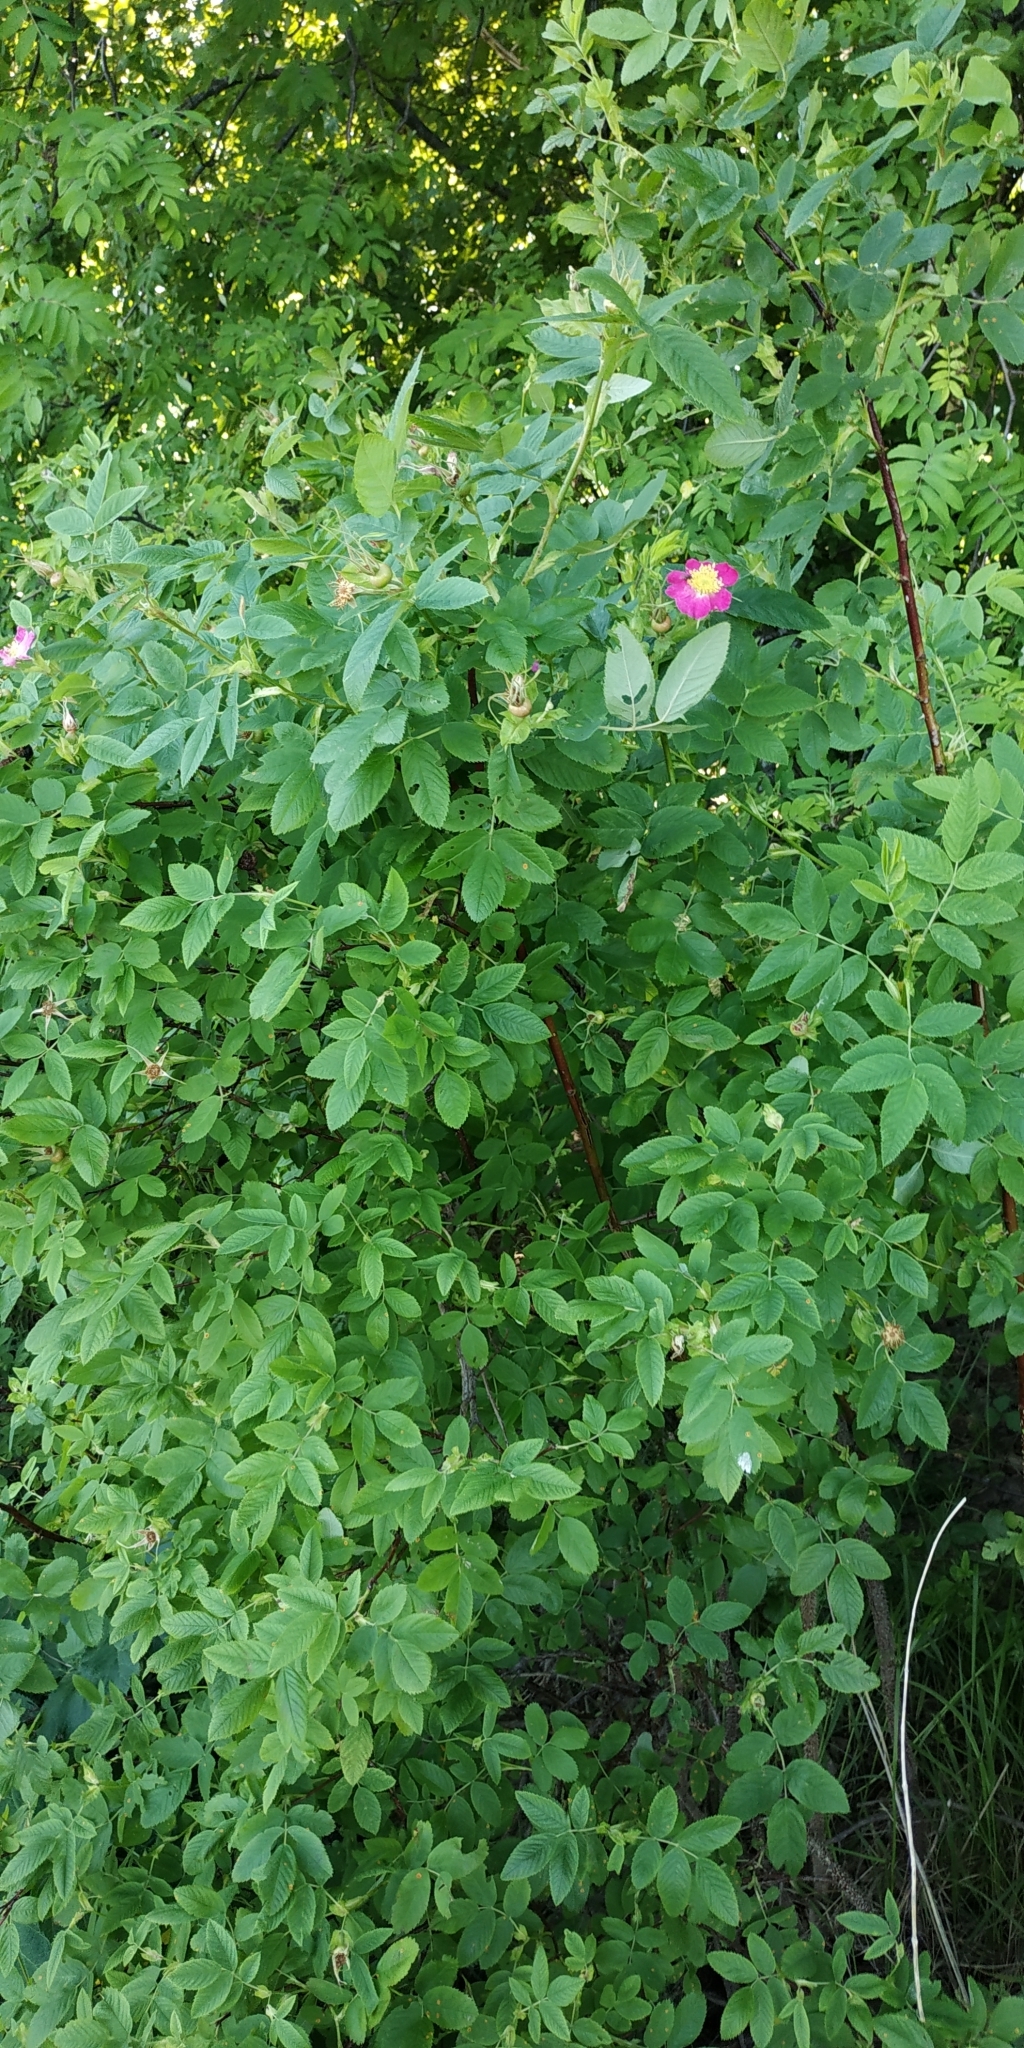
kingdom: Plantae
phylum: Tracheophyta
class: Magnoliopsida
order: Rosales
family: Rosaceae
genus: Rosa
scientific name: Rosa glabrifolia
